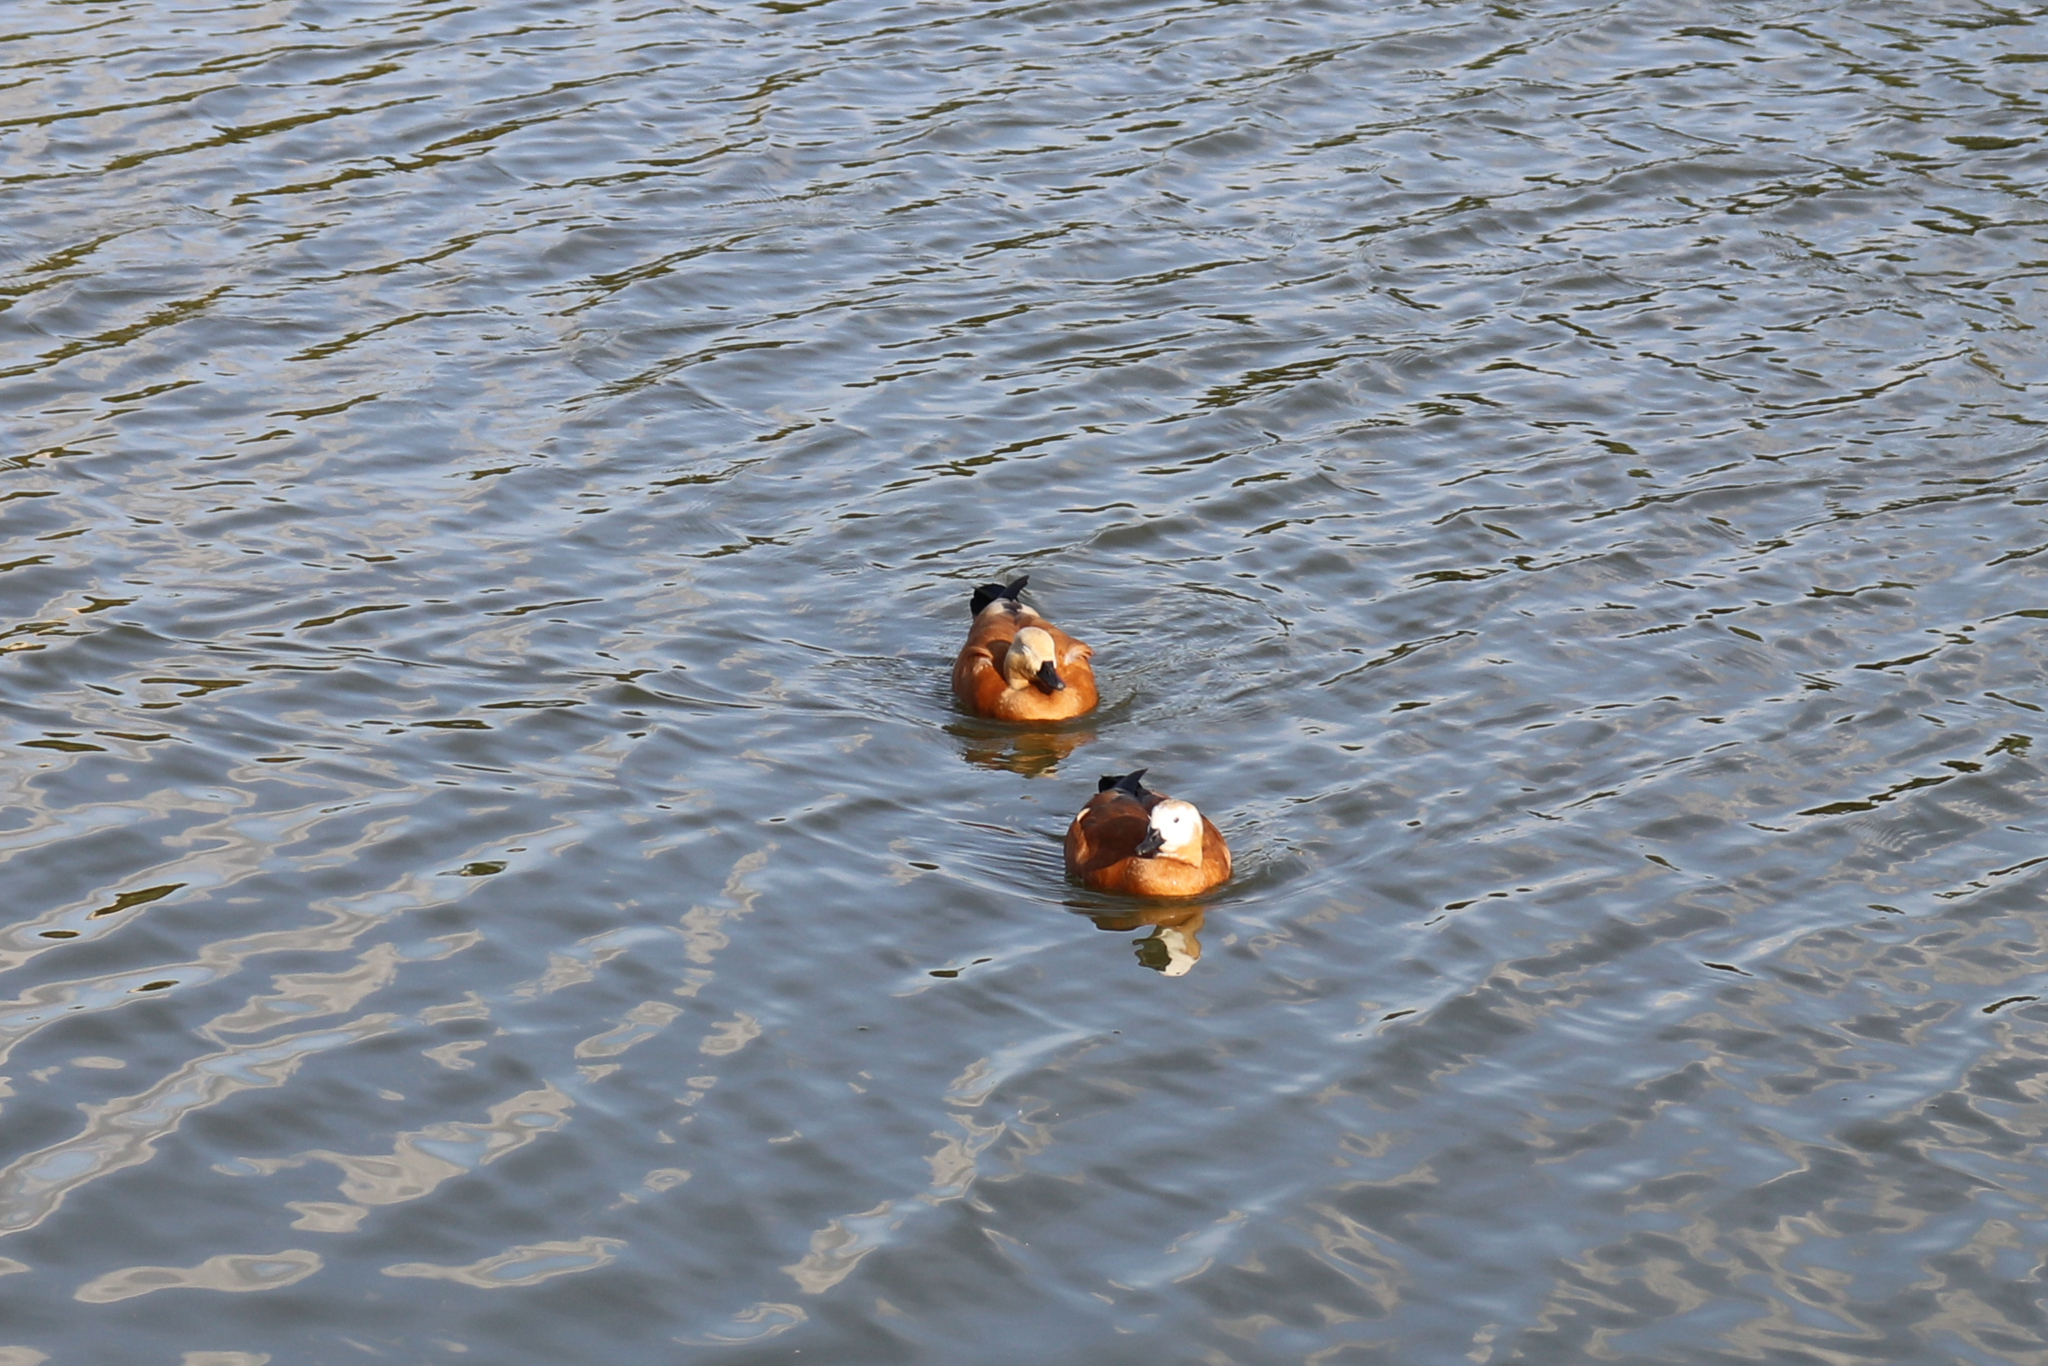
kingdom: Animalia
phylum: Chordata
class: Aves
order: Anseriformes
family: Anatidae
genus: Tadorna
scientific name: Tadorna ferruginea
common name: Ruddy shelduck
